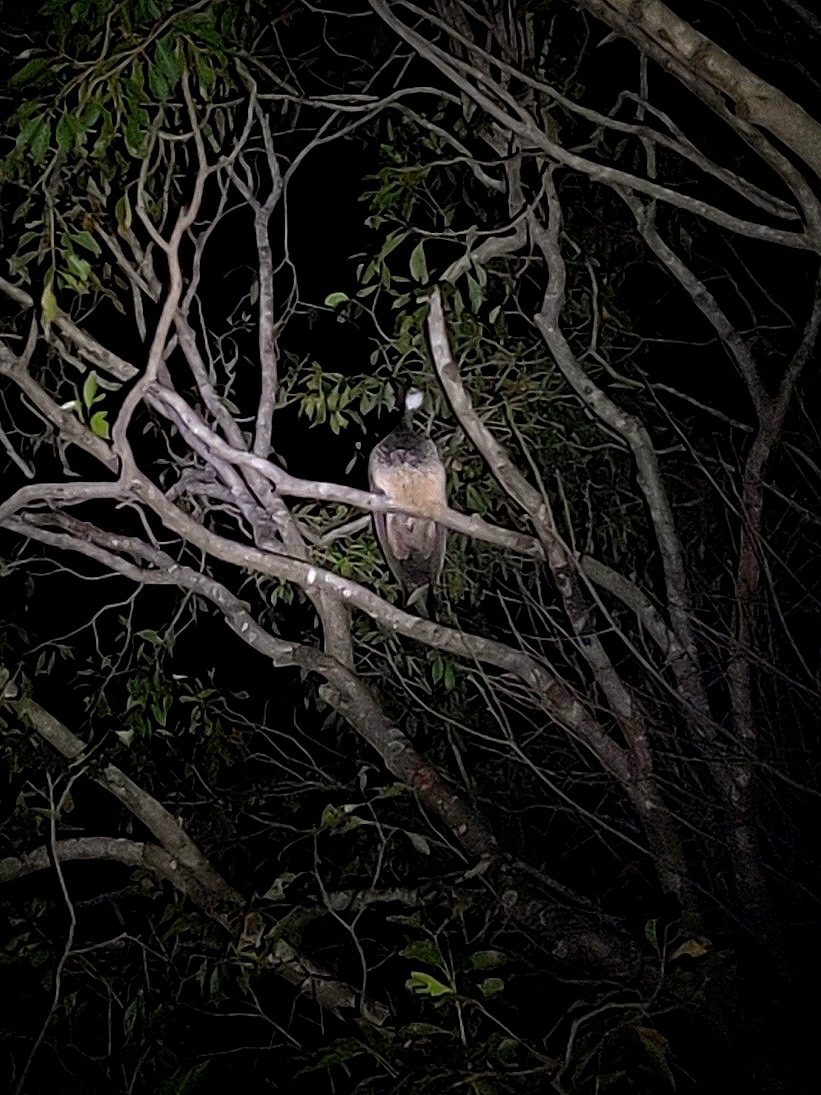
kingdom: Animalia
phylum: Chordata
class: Aves
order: Galliformes
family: Phasianidae
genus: Pavo
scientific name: Pavo cristatus
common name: Indian peafowl
